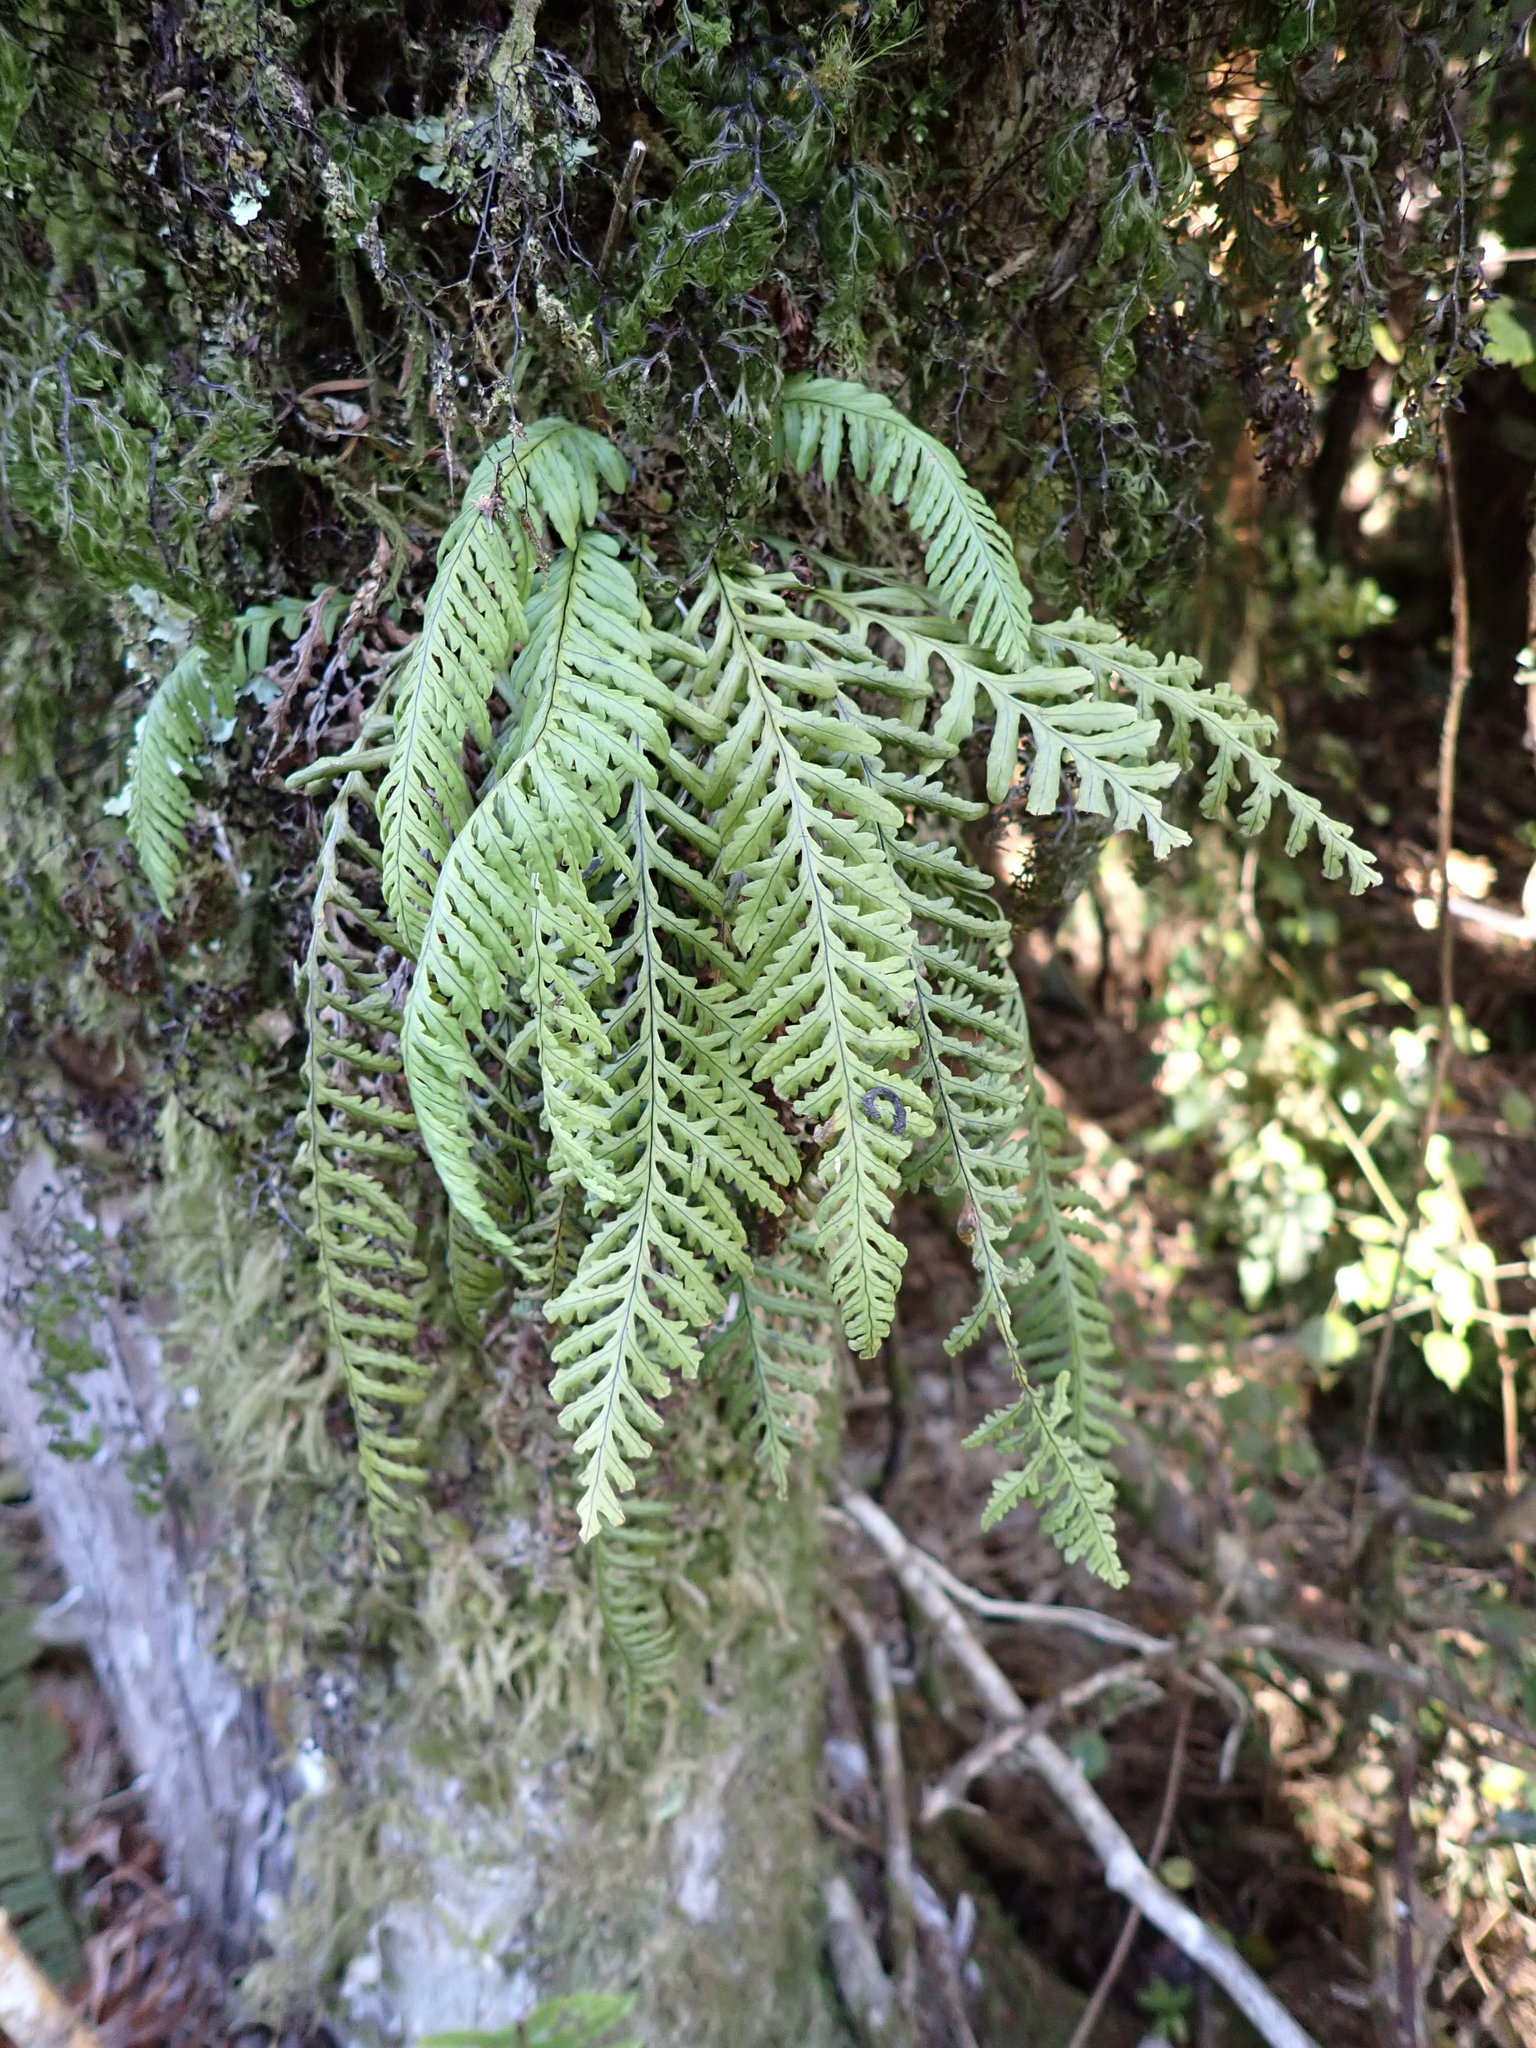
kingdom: Plantae
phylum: Tracheophyta
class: Polypodiopsida
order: Polypodiales
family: Polypodiaceae
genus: Notogrammitis
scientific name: Notogrammitis heterophylla
